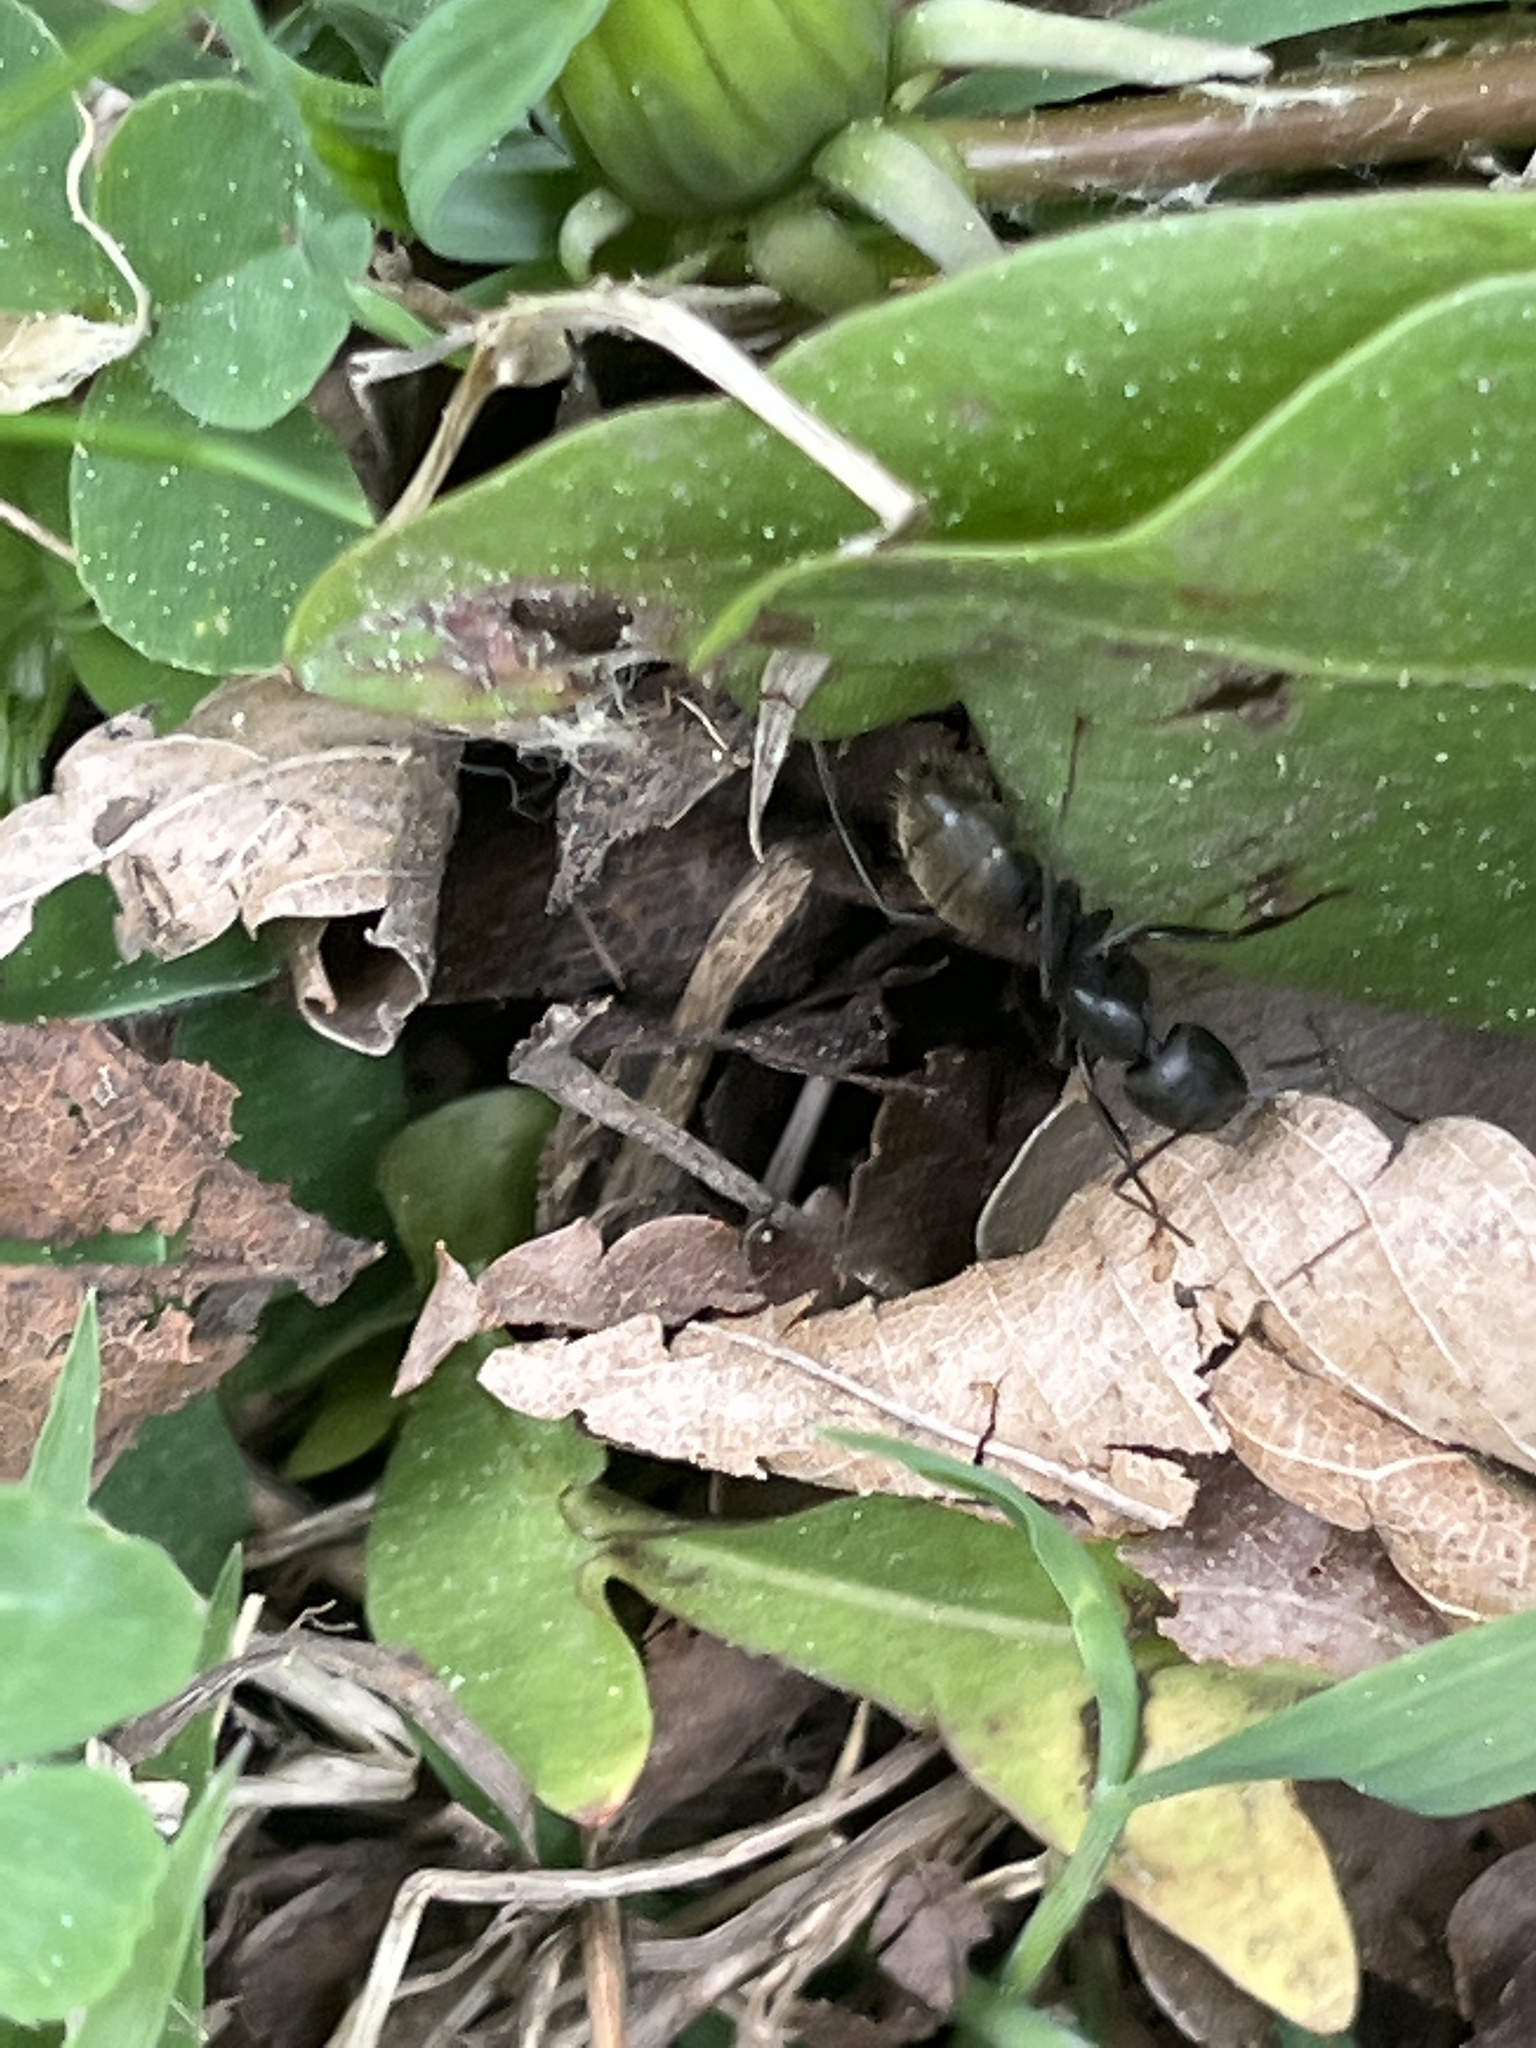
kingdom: Animalia
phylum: Arthropoda
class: Insecta
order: Hymenoptera
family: Formicidae
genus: Camponotus
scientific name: Camponotus pennsylvanicus
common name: Black carpenter ant
